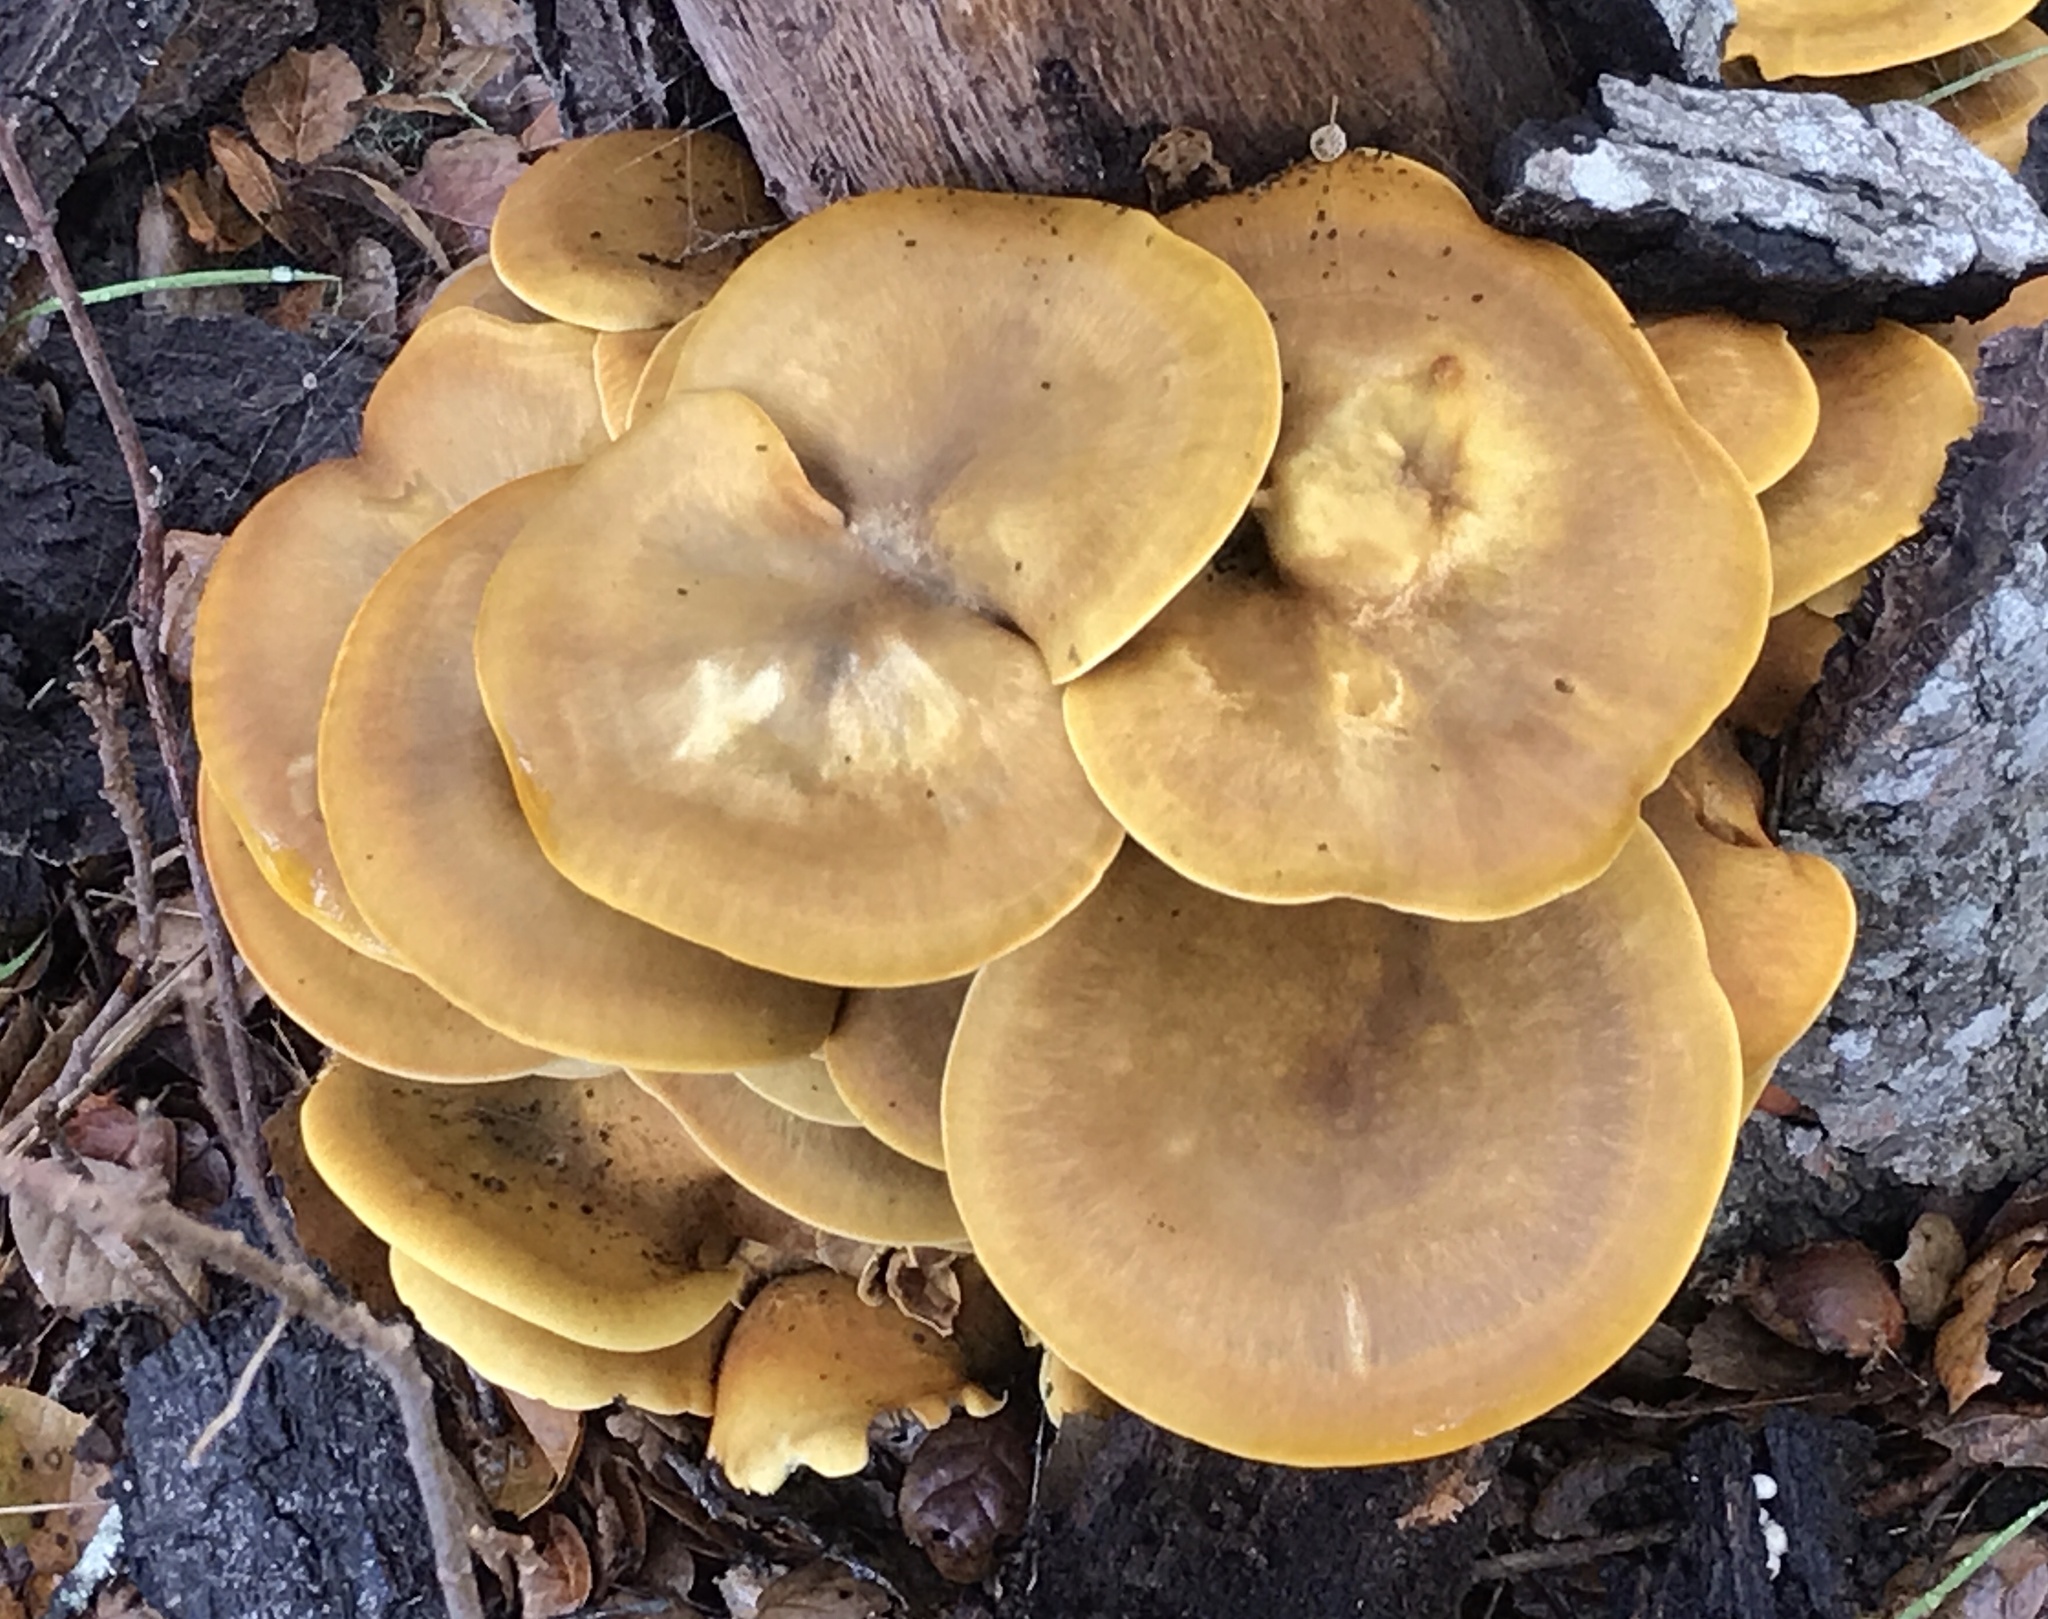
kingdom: Fungi
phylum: Basidiomycota
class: Agaricomycetes
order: Agaricales
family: Omphalotaceae
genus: Omphalotus
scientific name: Omphalotus olivascens
